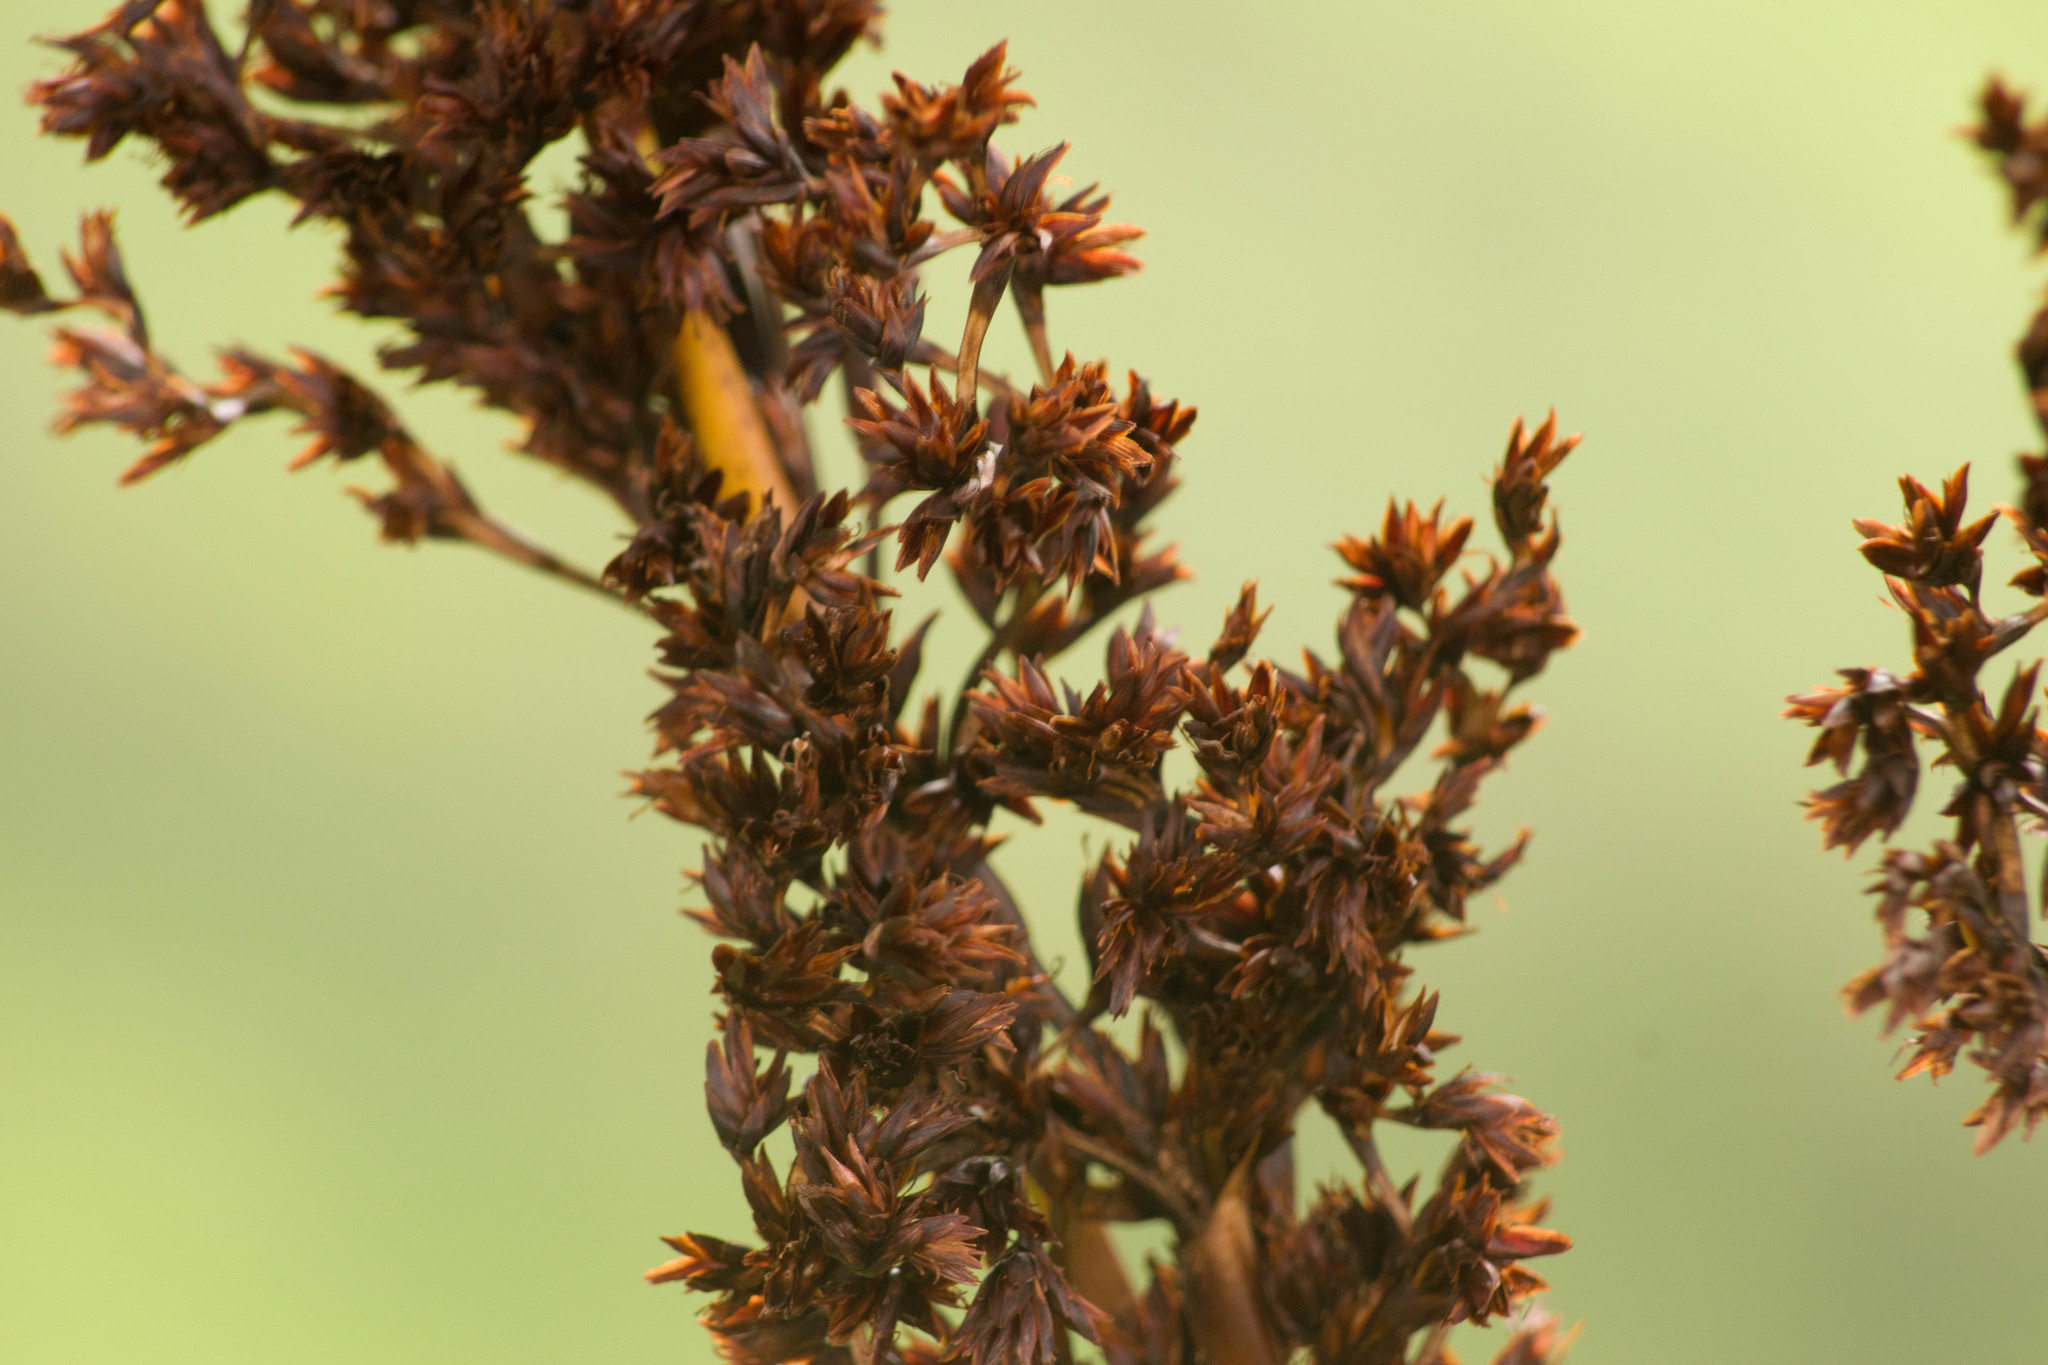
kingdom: Plantae
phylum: Tracheophyta
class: Liliopsida
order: Poales
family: Cyperaceae
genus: Machaerina
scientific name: Machaerina angustifolia
